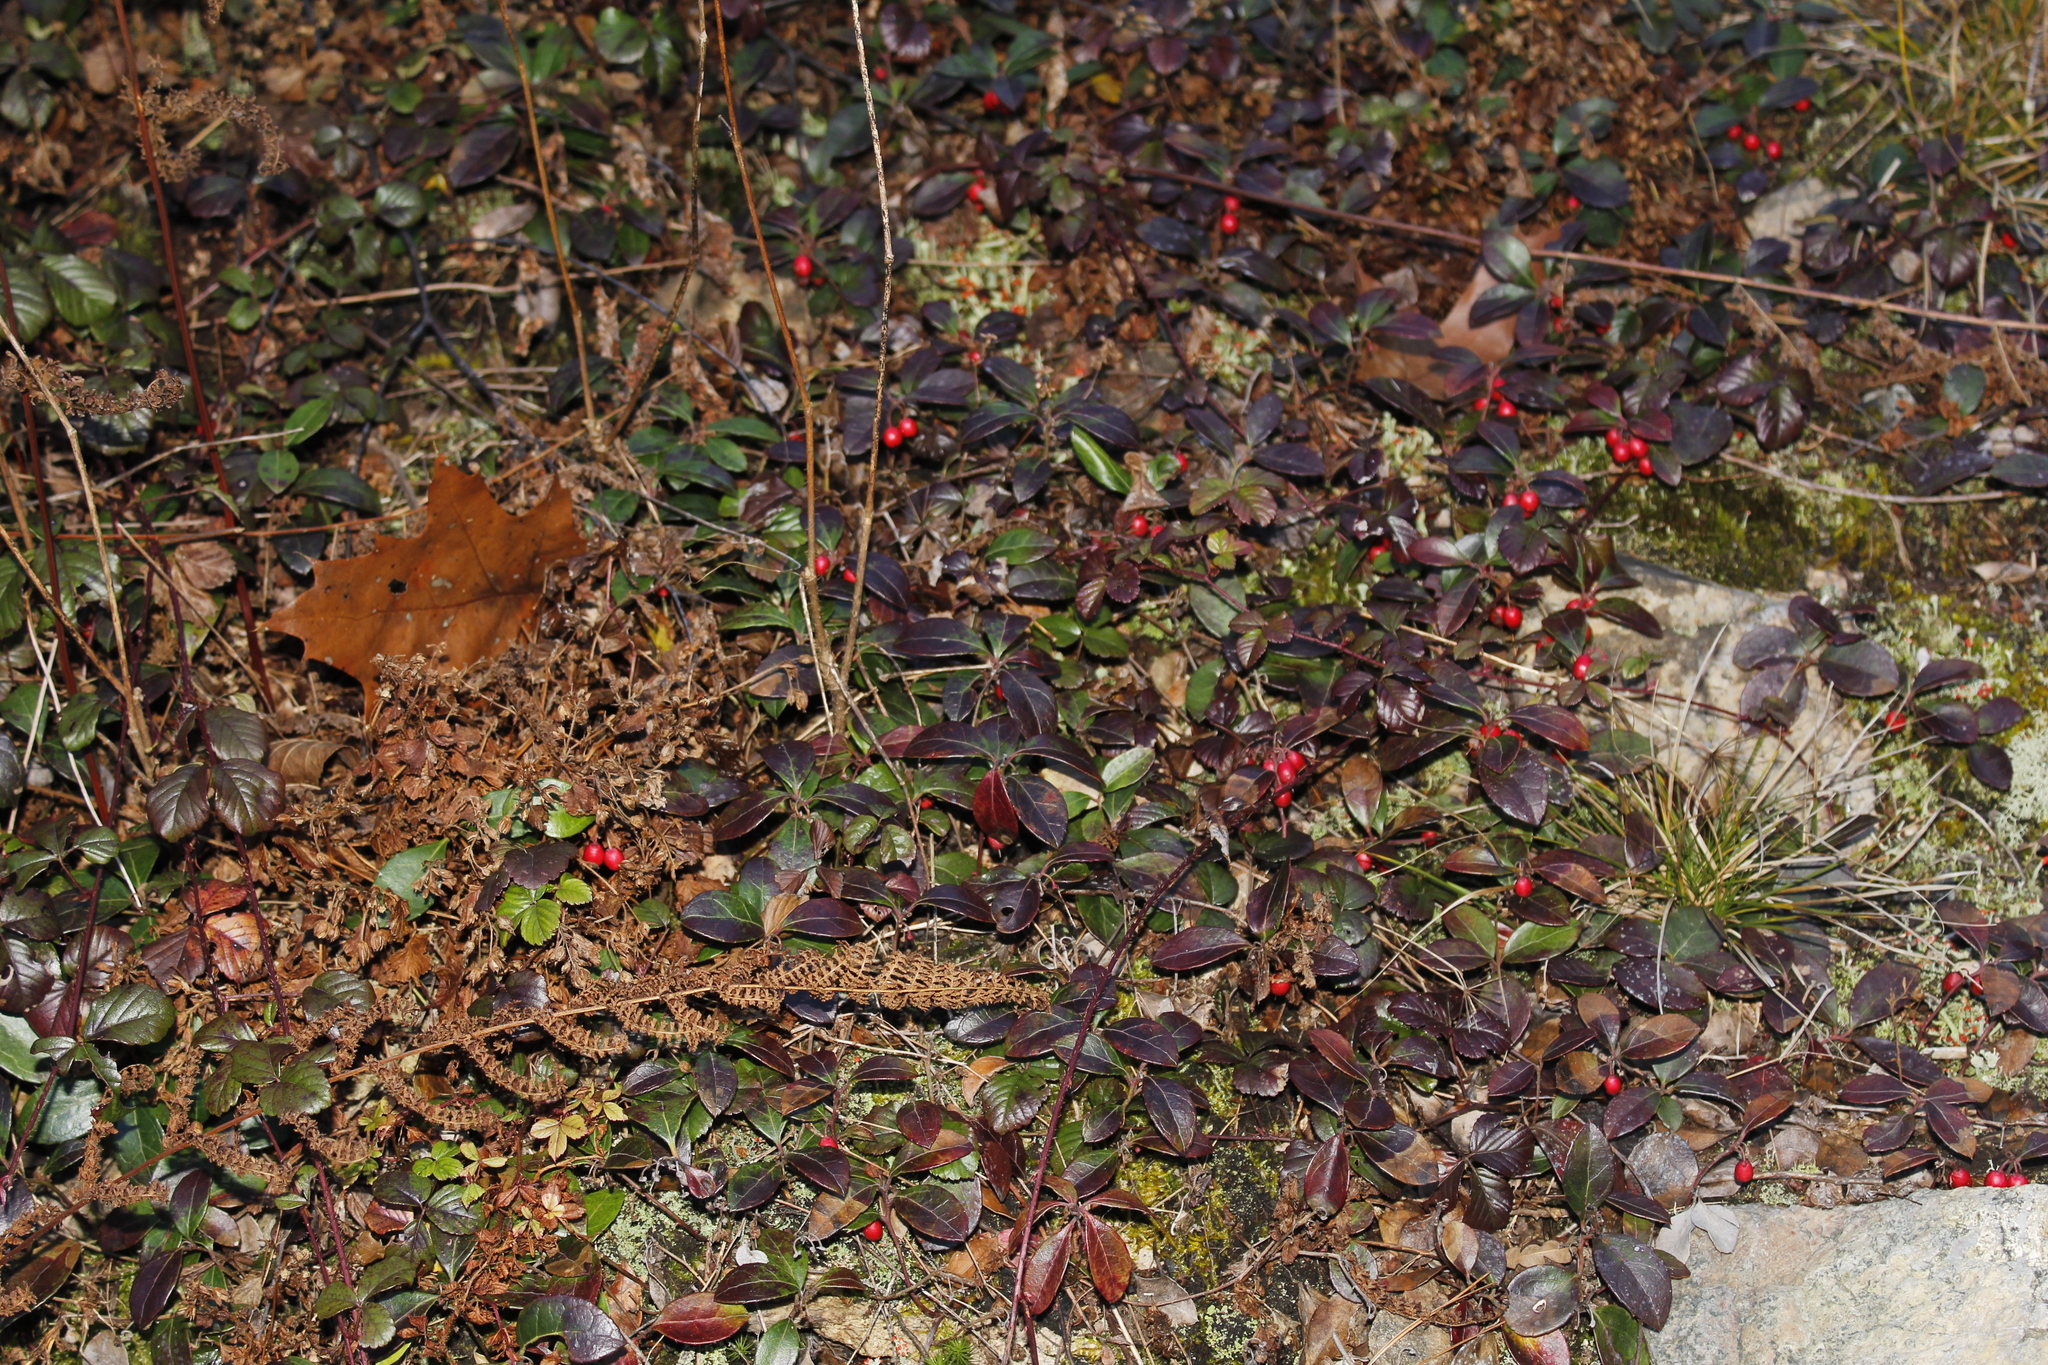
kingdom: Plantae
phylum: Tracheophyta
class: Magnoliopsida
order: Ericales
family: Ericaceae
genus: Gaultheria
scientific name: Gaultheria procumbens
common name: Checkerberry
